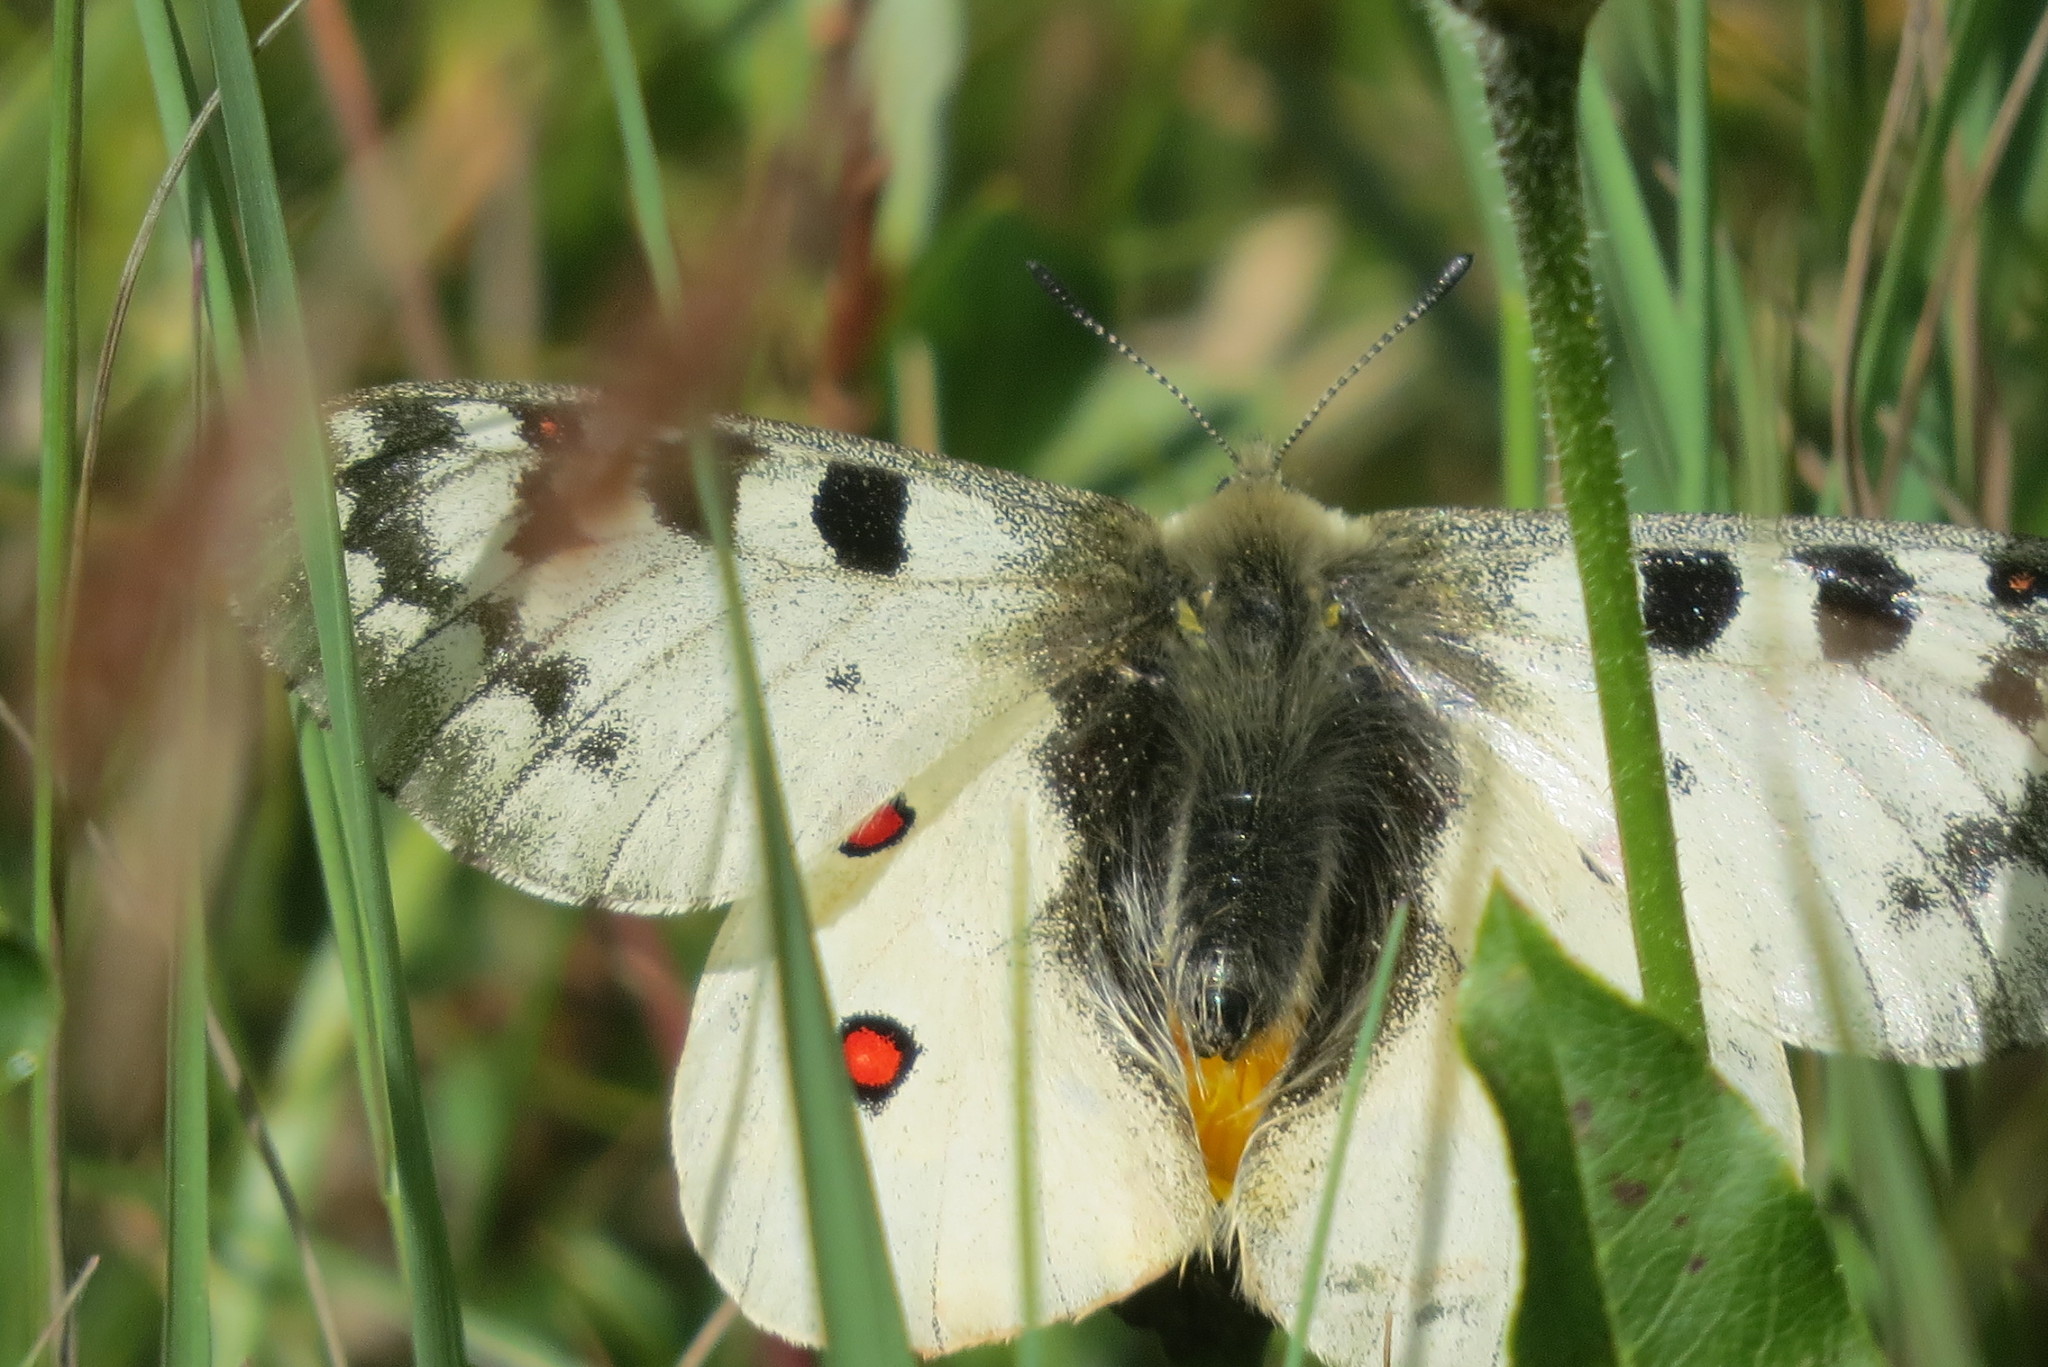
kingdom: Animalia
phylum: Arthropoda
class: Insecta
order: Lepidoptera
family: Papilionidae
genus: Parnassius
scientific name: Parnassius phoebus
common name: Small apollo
